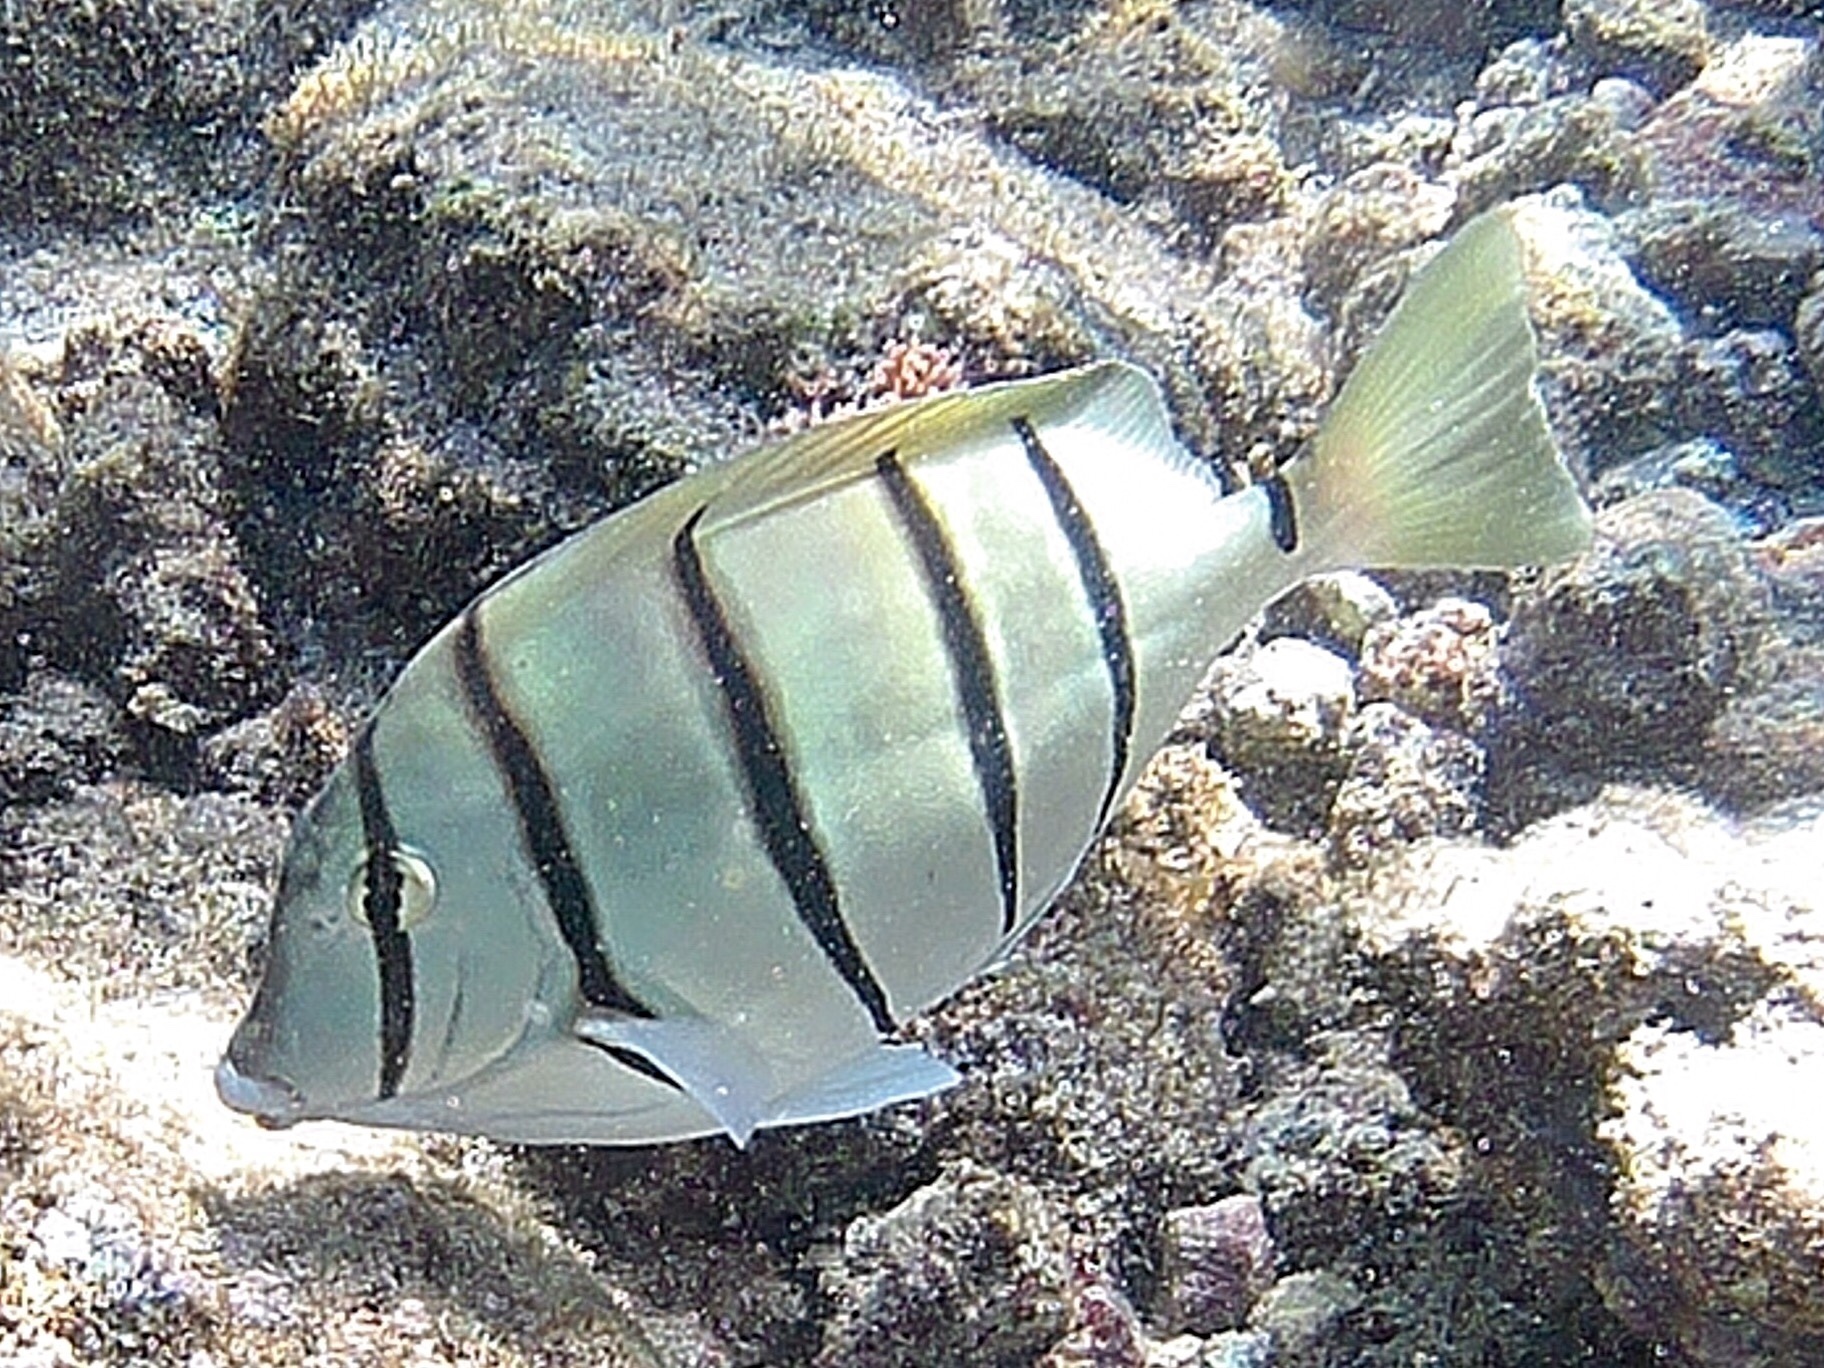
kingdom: Animalia
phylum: Chordata
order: Perciformes
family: Acanthuridae
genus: Acanthurus
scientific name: Acanthurus triostegus
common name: Convict surgeonfish
